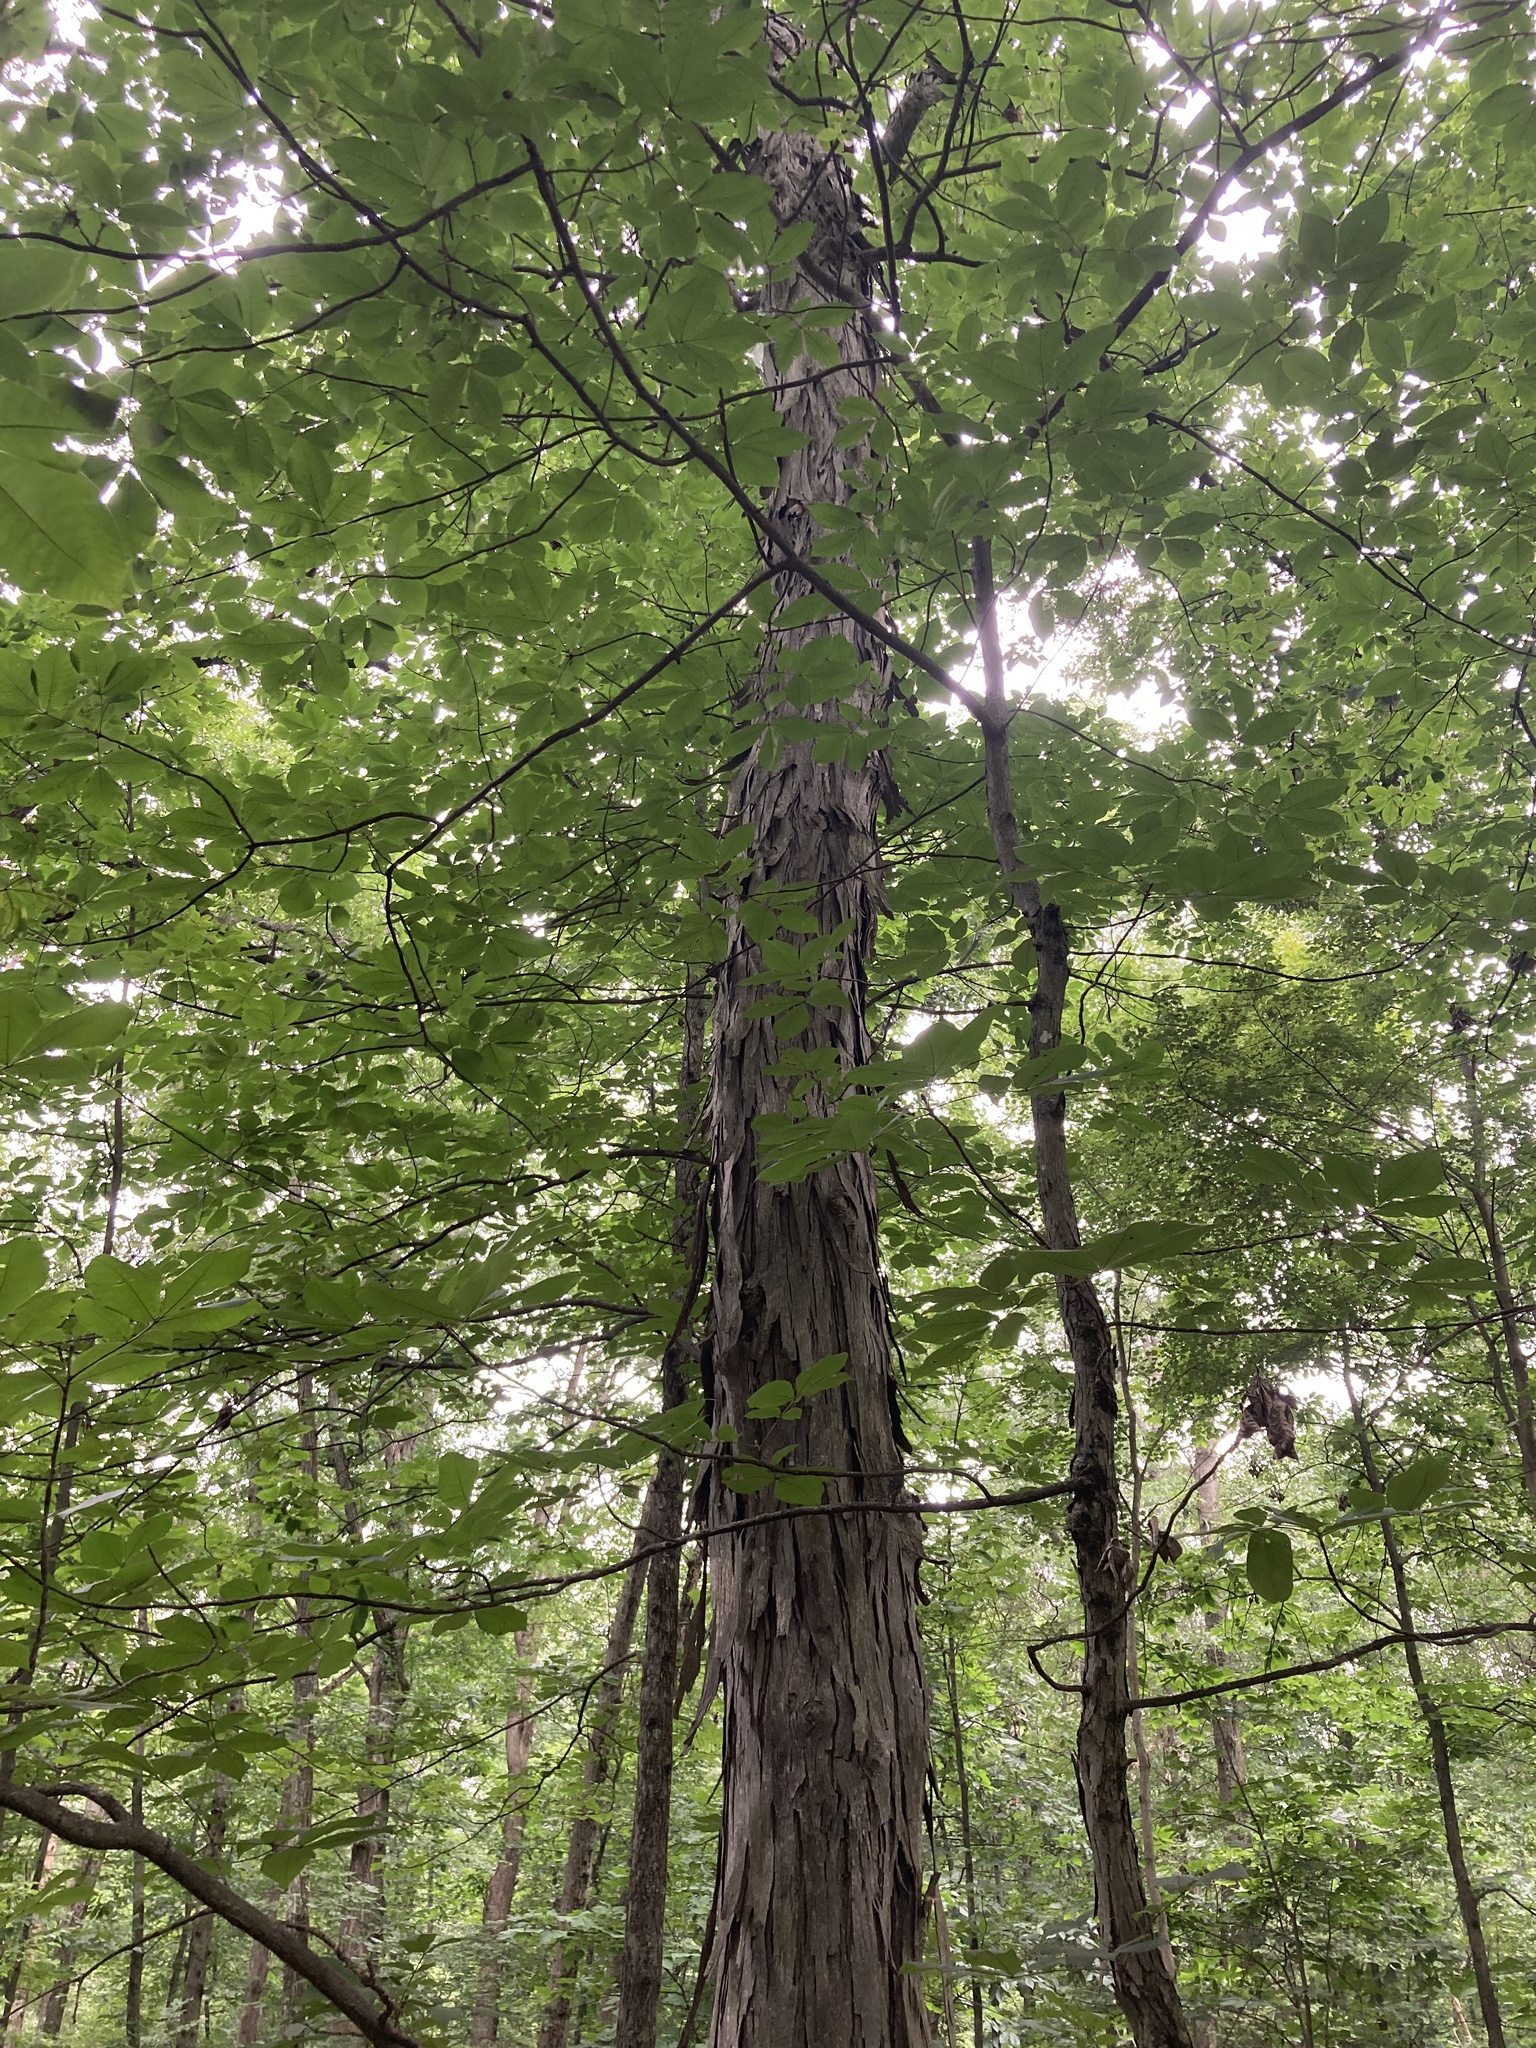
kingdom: Plantae
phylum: Tracheophyta
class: Magnoliopsida
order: Fagales
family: Juglandaceae
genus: Carya
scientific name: Carya ovata
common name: Shagbark hickory
